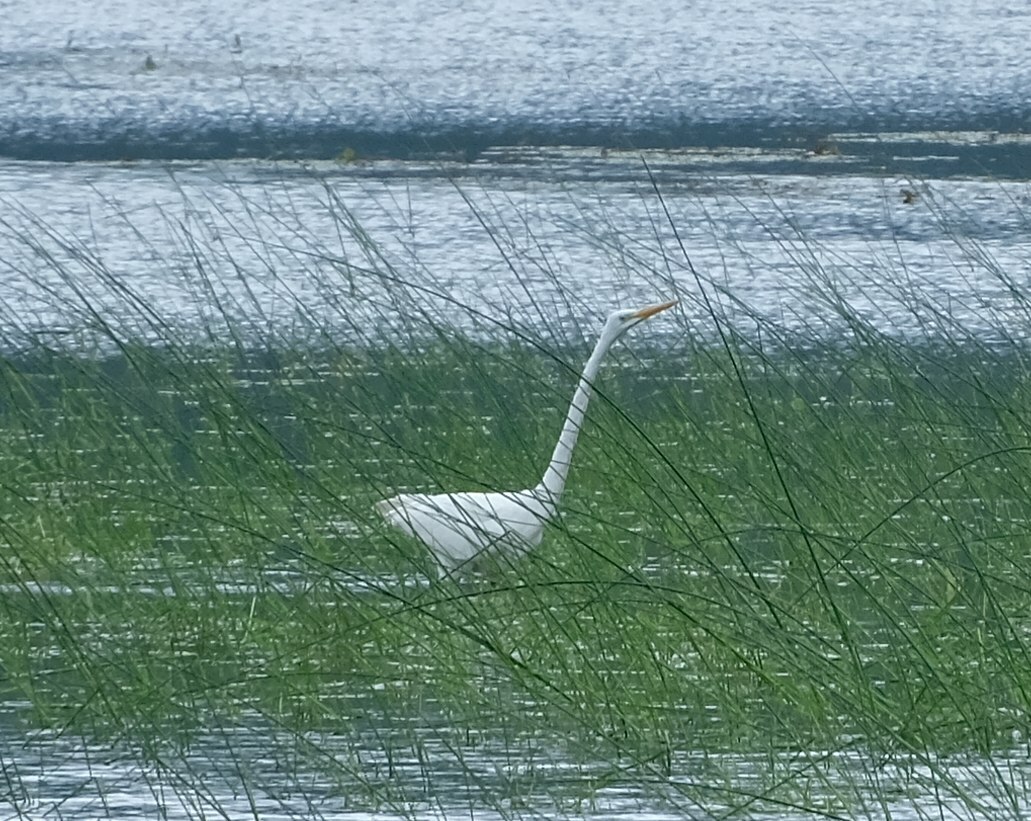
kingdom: Animalia
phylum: Chordata
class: Aves
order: Pelecaniformes
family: Ardeidae
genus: Ardea
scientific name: Ardea alba
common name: Great egret
